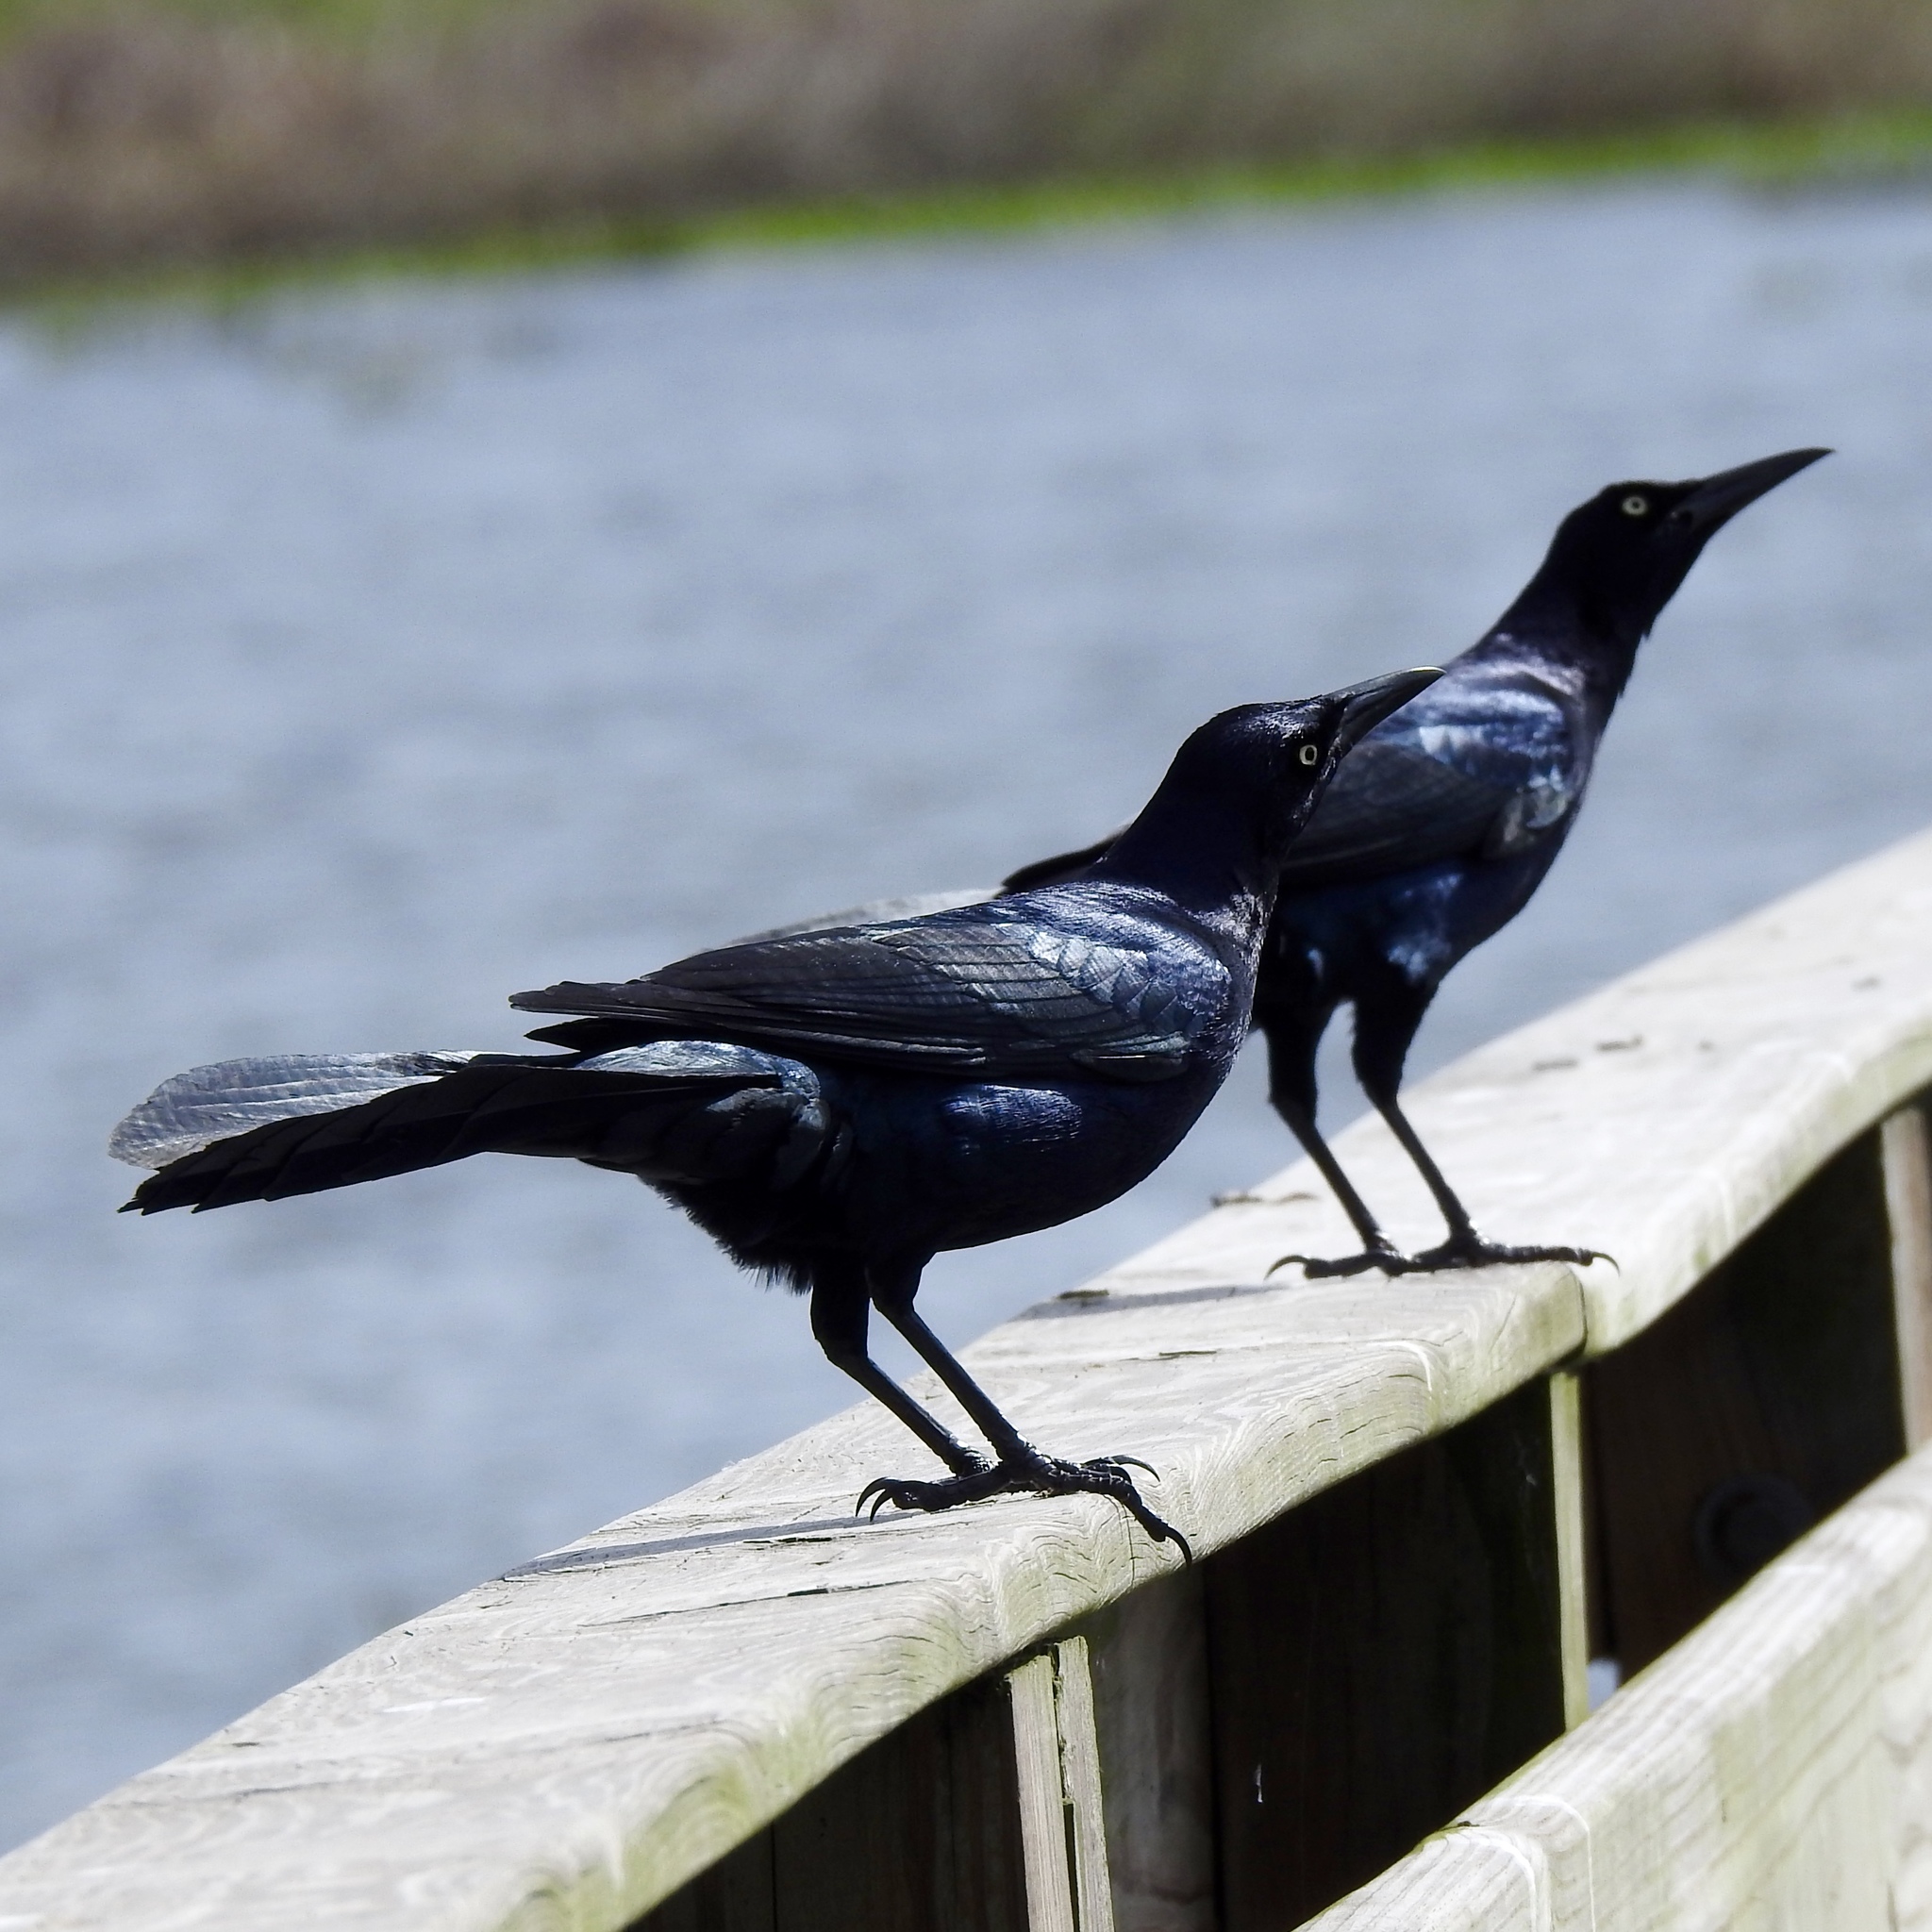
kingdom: Animalia
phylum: Chordata
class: Aves
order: Passeriformes
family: Icteridae
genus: Quiscalus
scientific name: Quiscalus major
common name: Boat-tailed grackle
